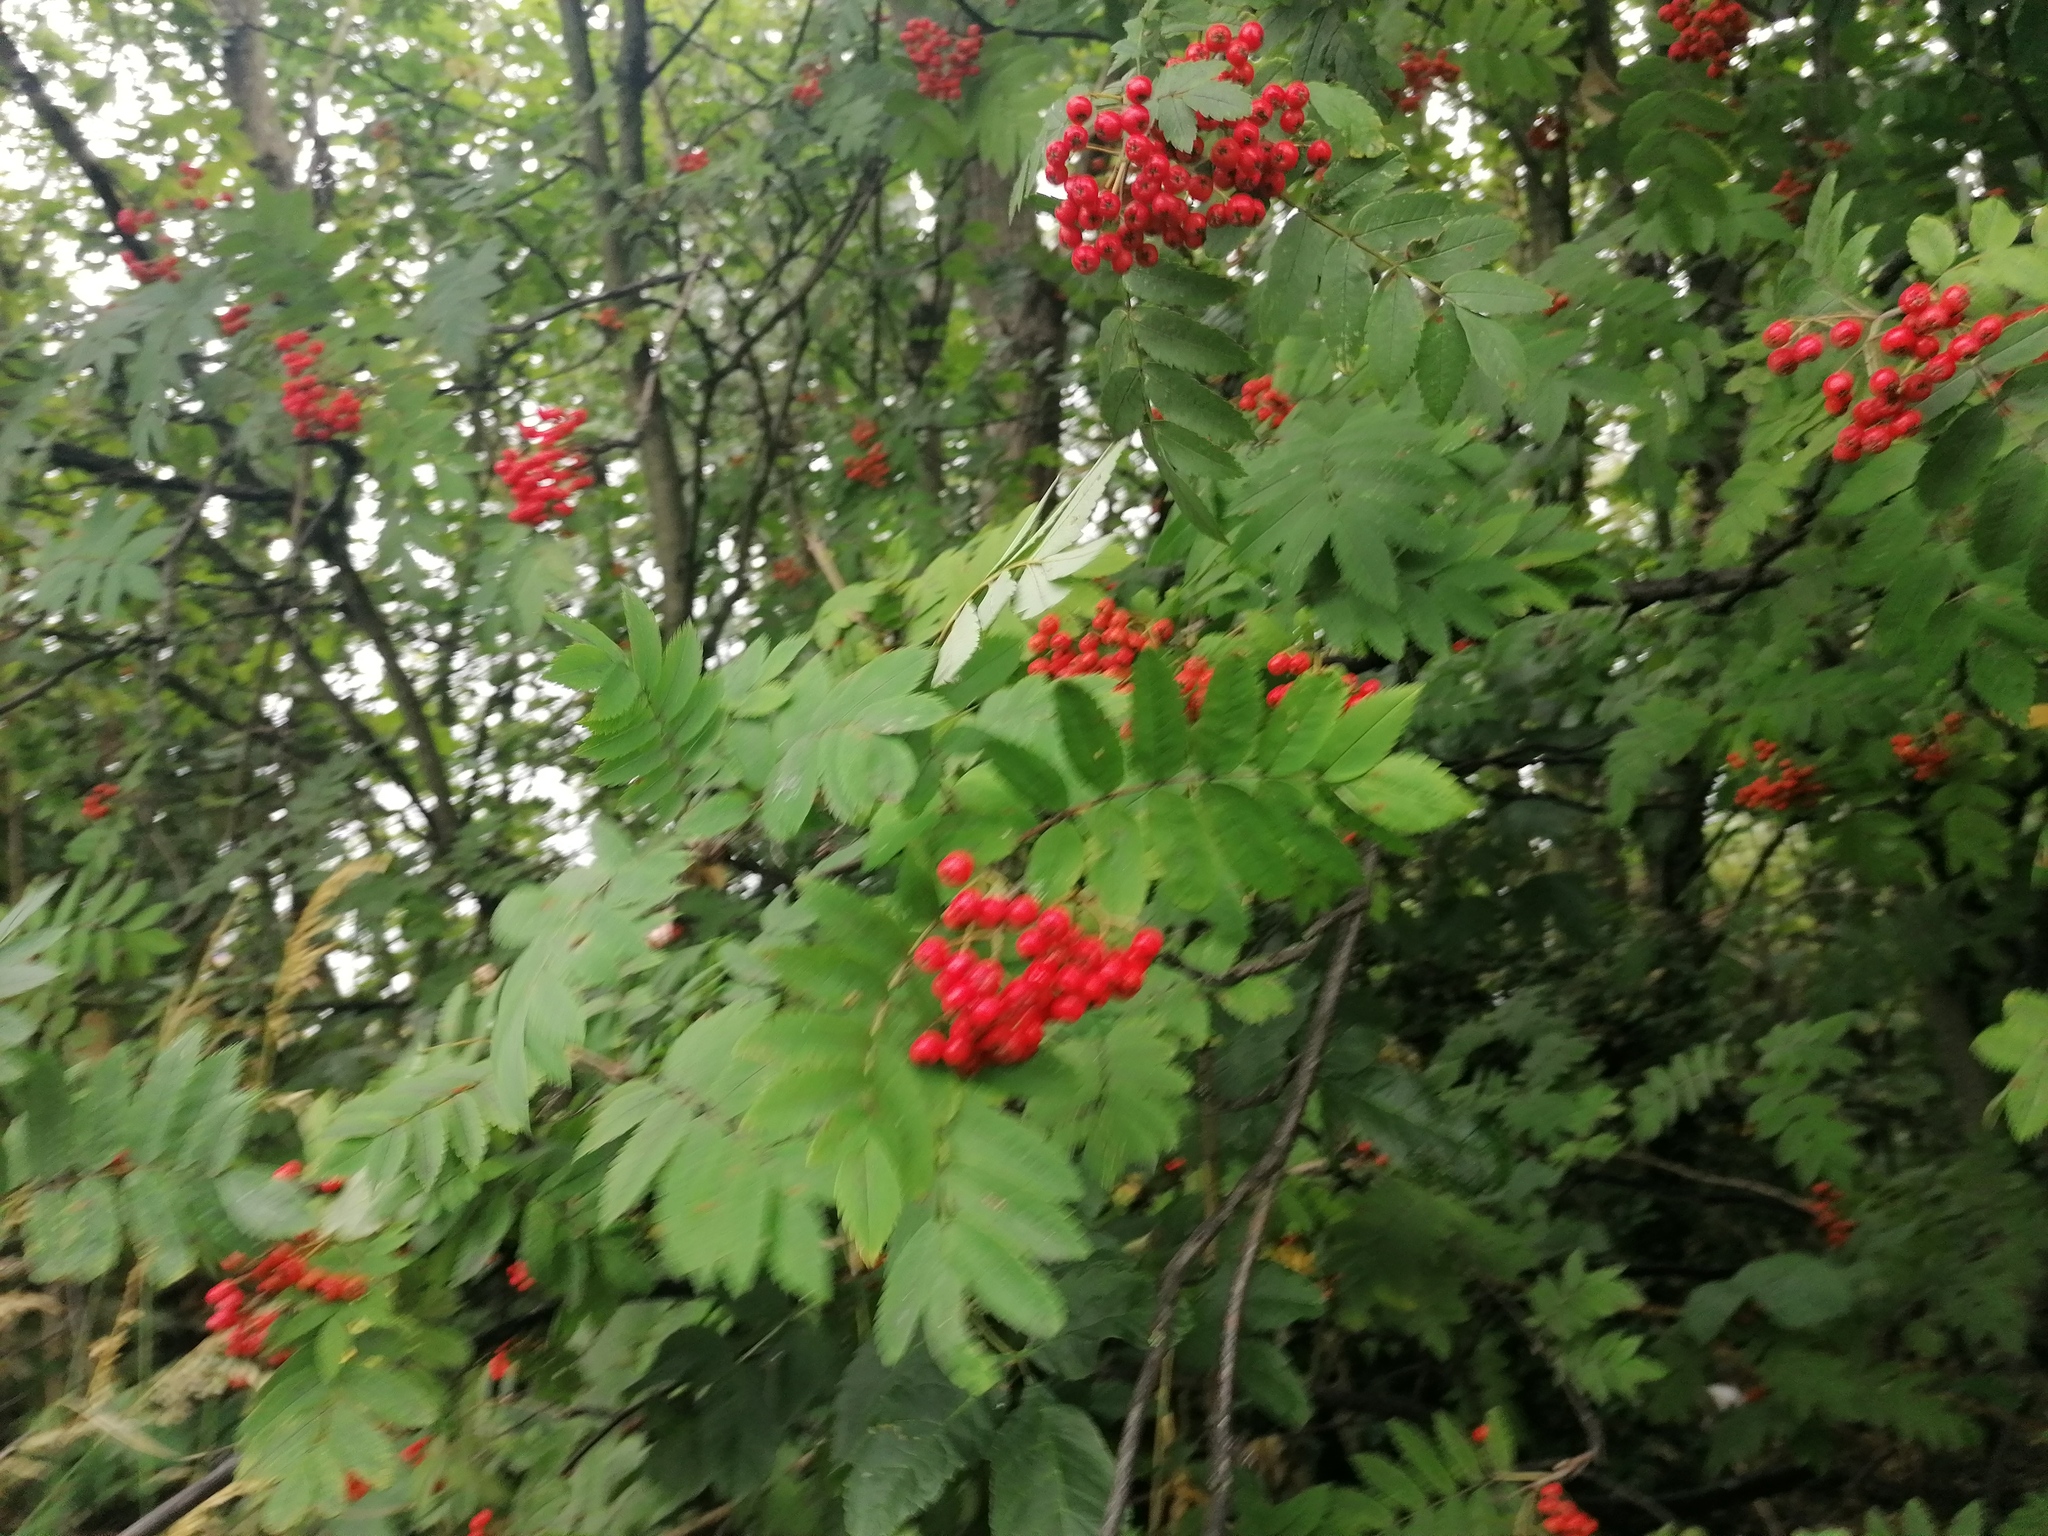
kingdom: Plantae
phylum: Tracheophyta
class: Magnoliopsida
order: Rosales
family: Rosaceae
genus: Sorbus
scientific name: Sorbus aucuparia
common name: Rowan
